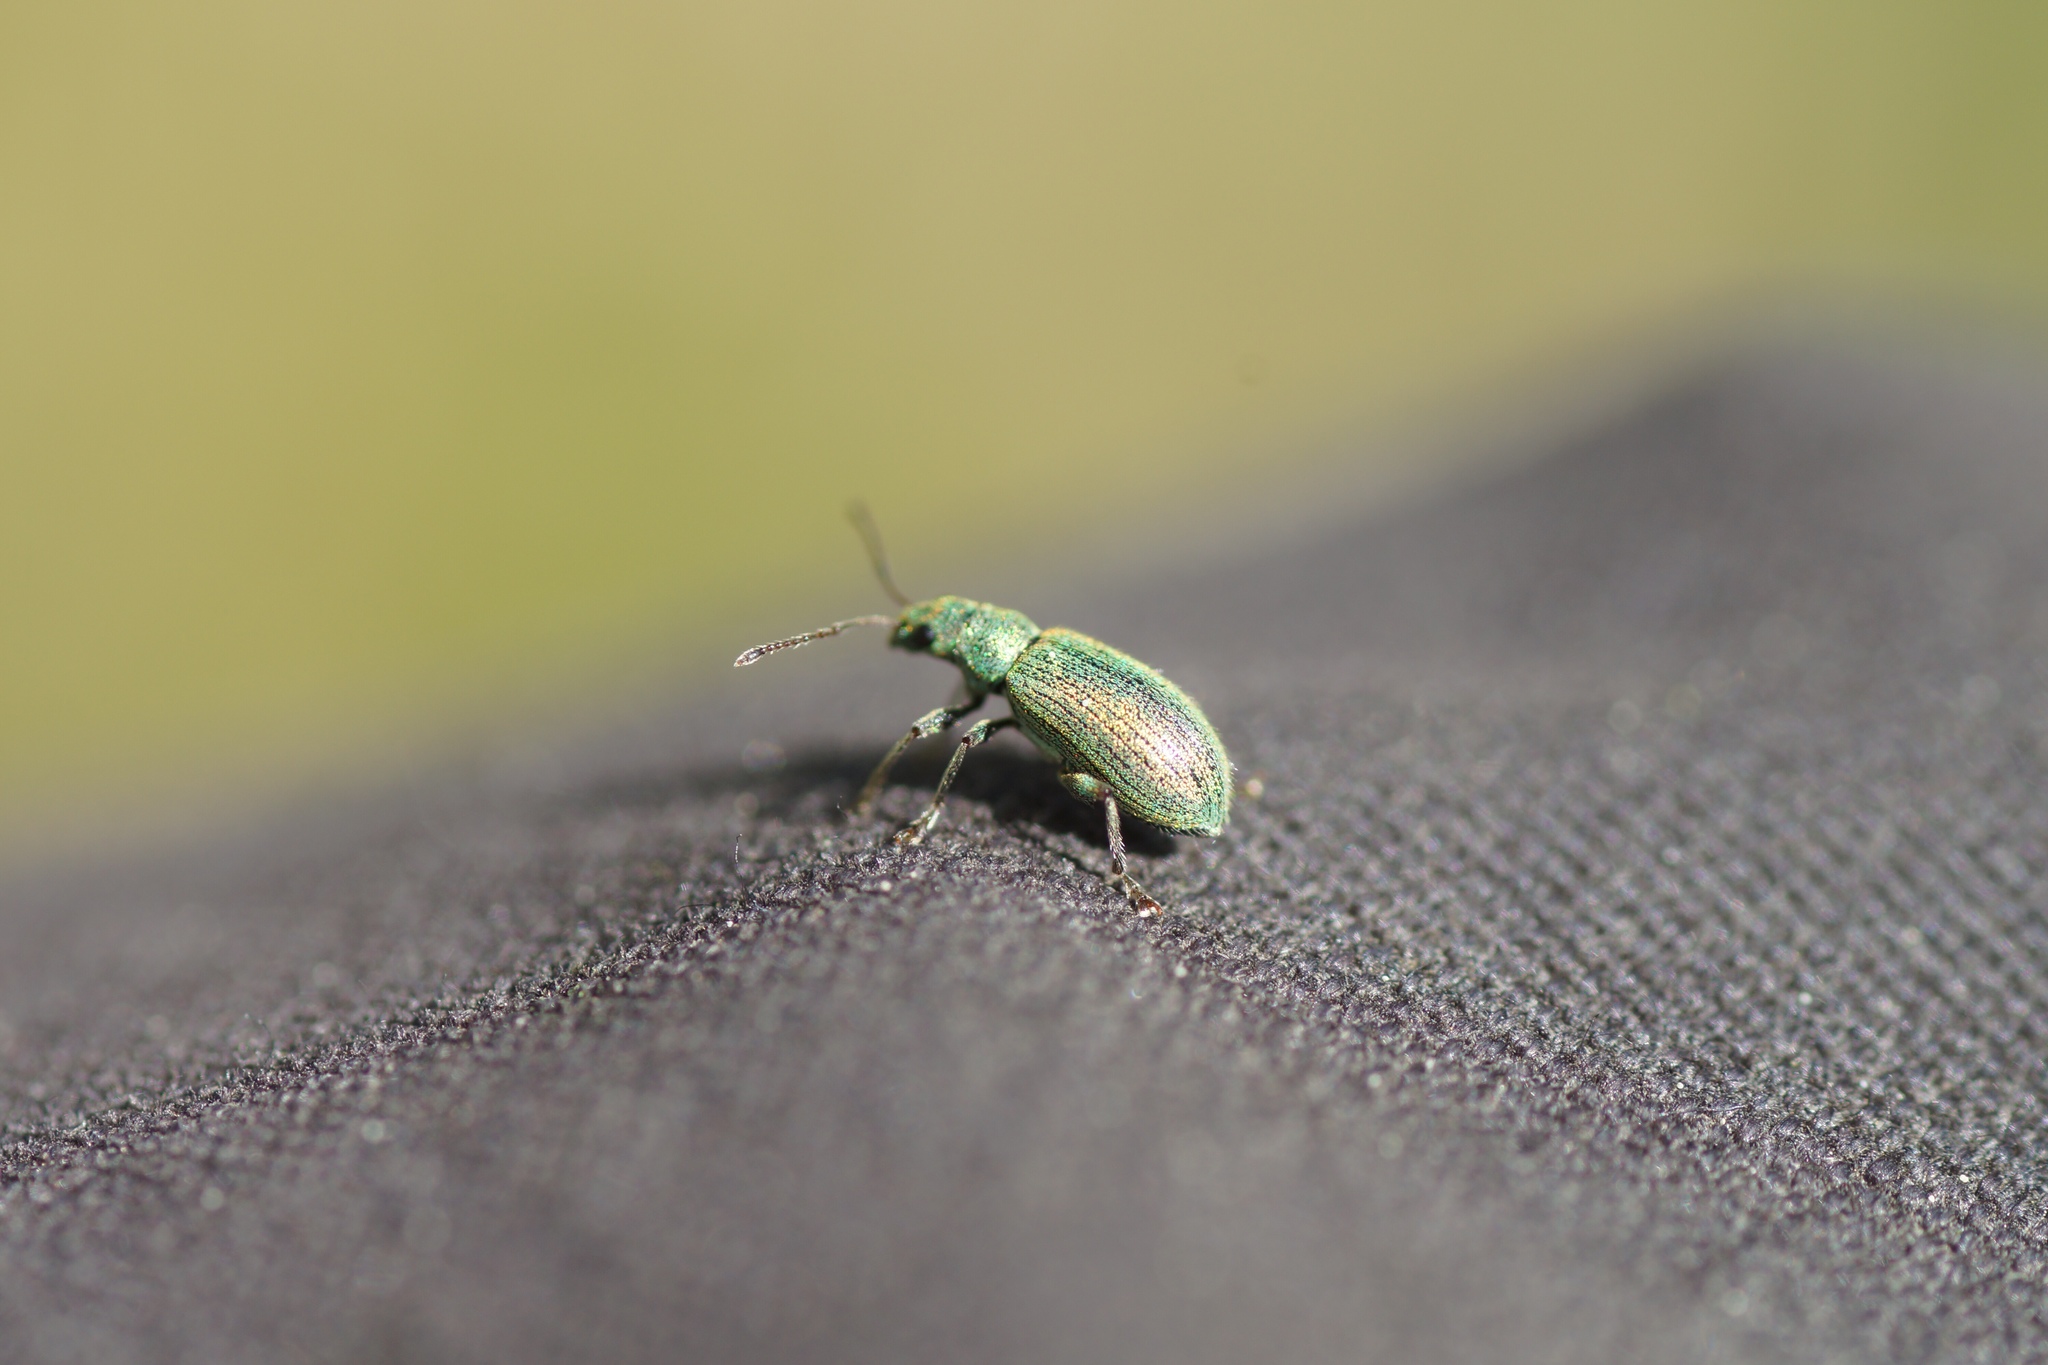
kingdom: Animalia
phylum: Arthropoda
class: Insecta
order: Coleoptera
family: Curculionidae
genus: Phyllobius
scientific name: Phyllobius argentatus
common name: Silver-green leaf weevil
